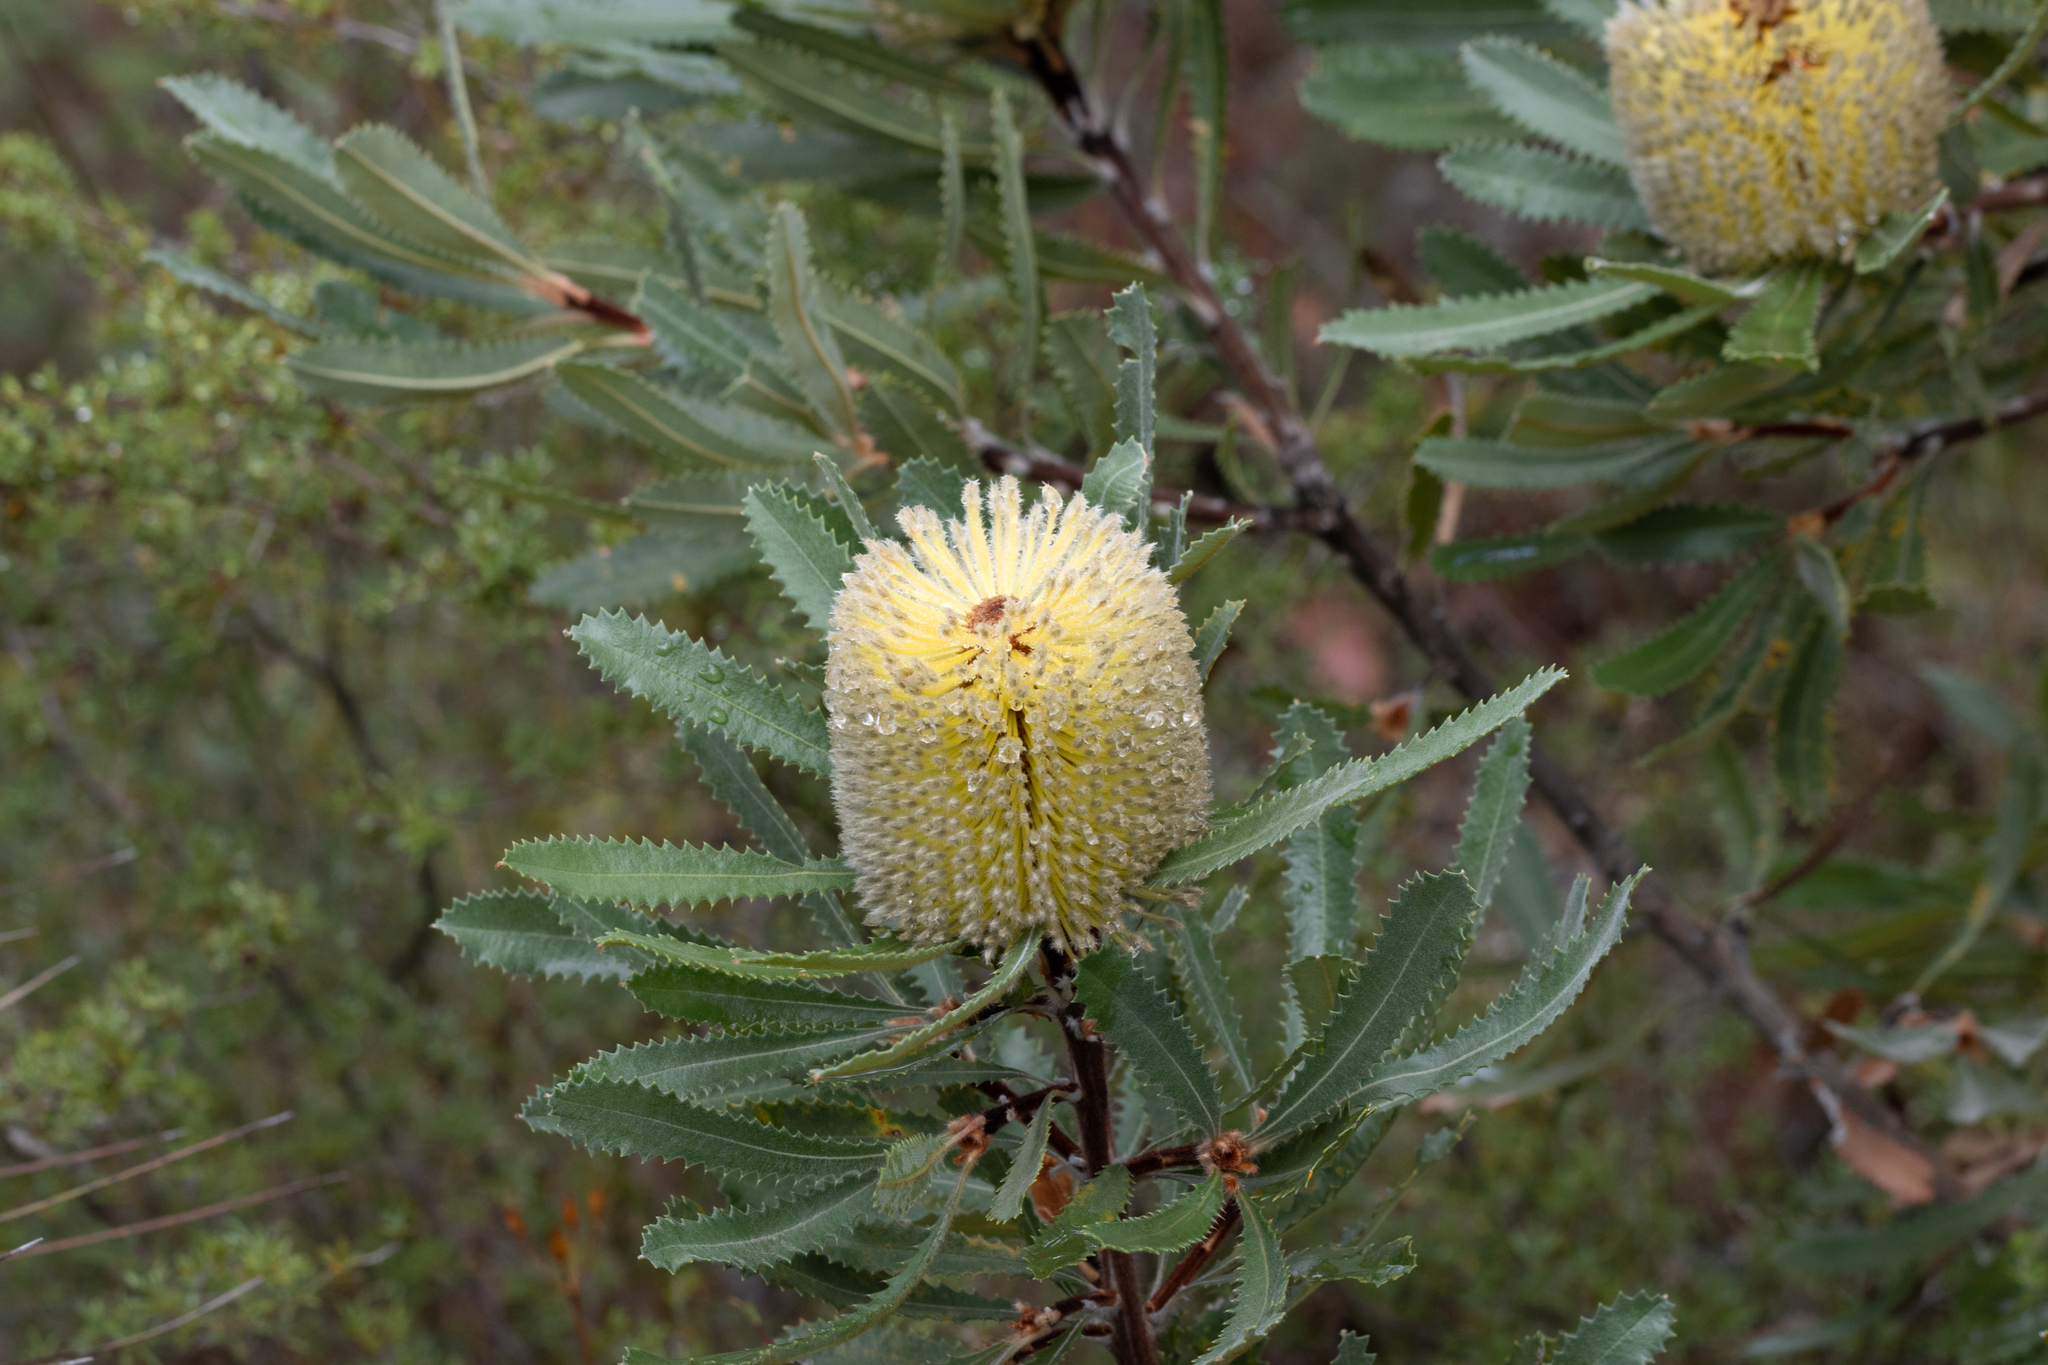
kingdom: Plantae
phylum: Tracheophyta
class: Magnoliopsida
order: Proteales
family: Proteaceae
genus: Banksia
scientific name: Banksia ornata
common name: Desert banksia
